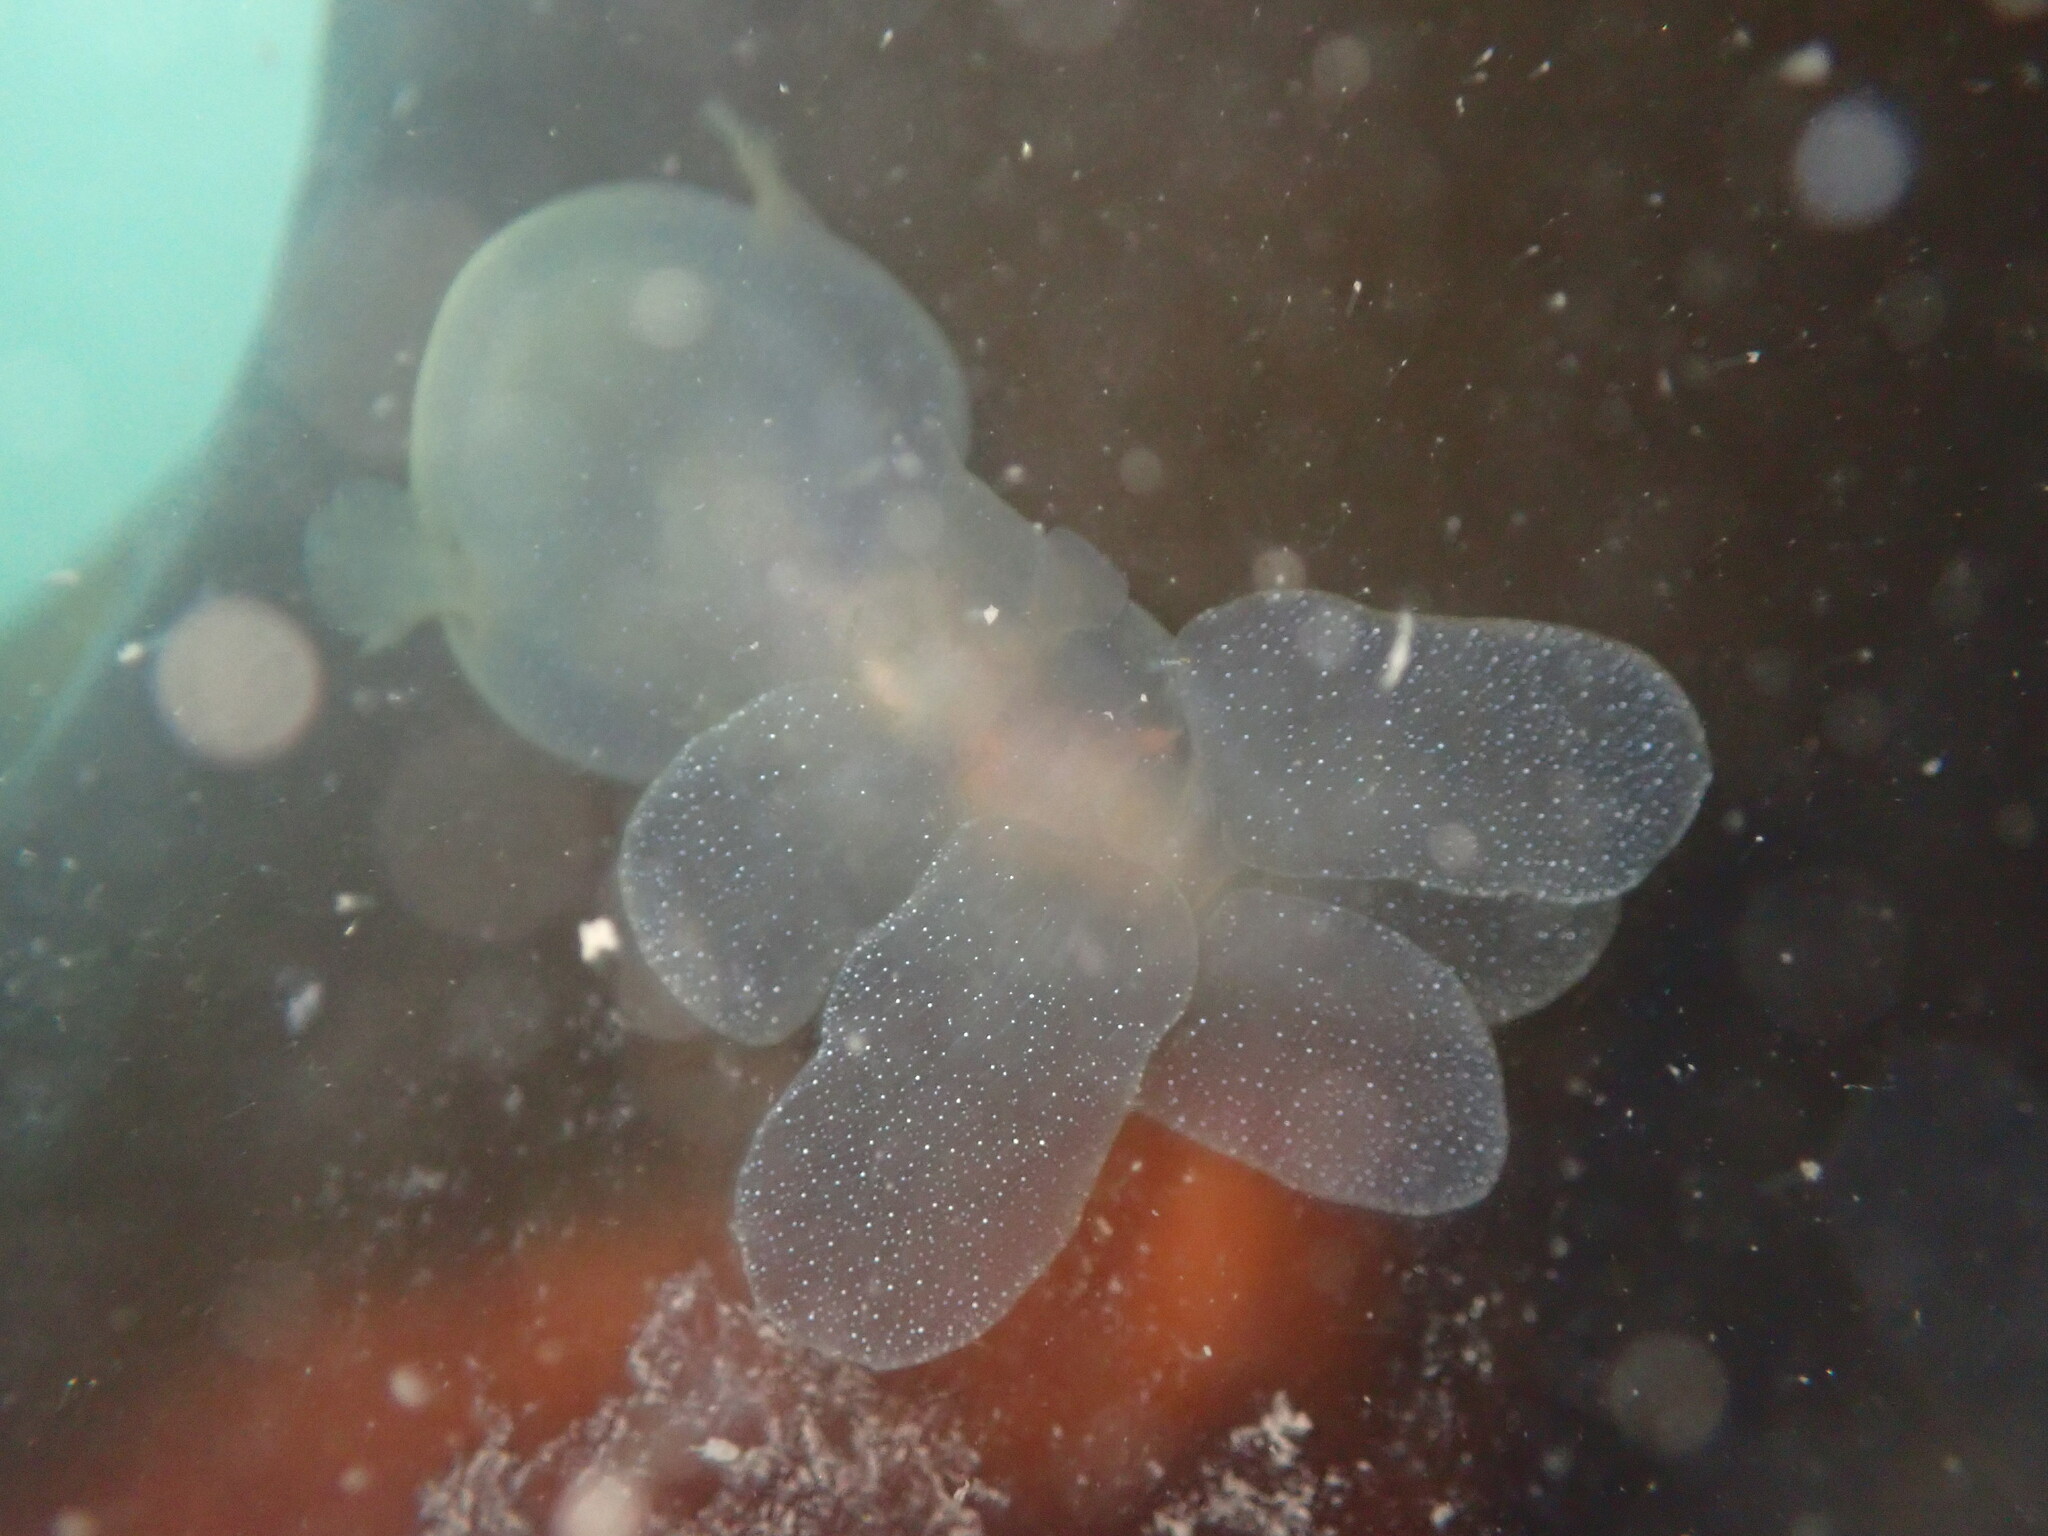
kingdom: Animalia
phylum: Mollusca
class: Gastropoda
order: Nudibranchia
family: Tethydidae
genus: Melibe
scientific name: Melibe leonina
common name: Lion nudibranch
